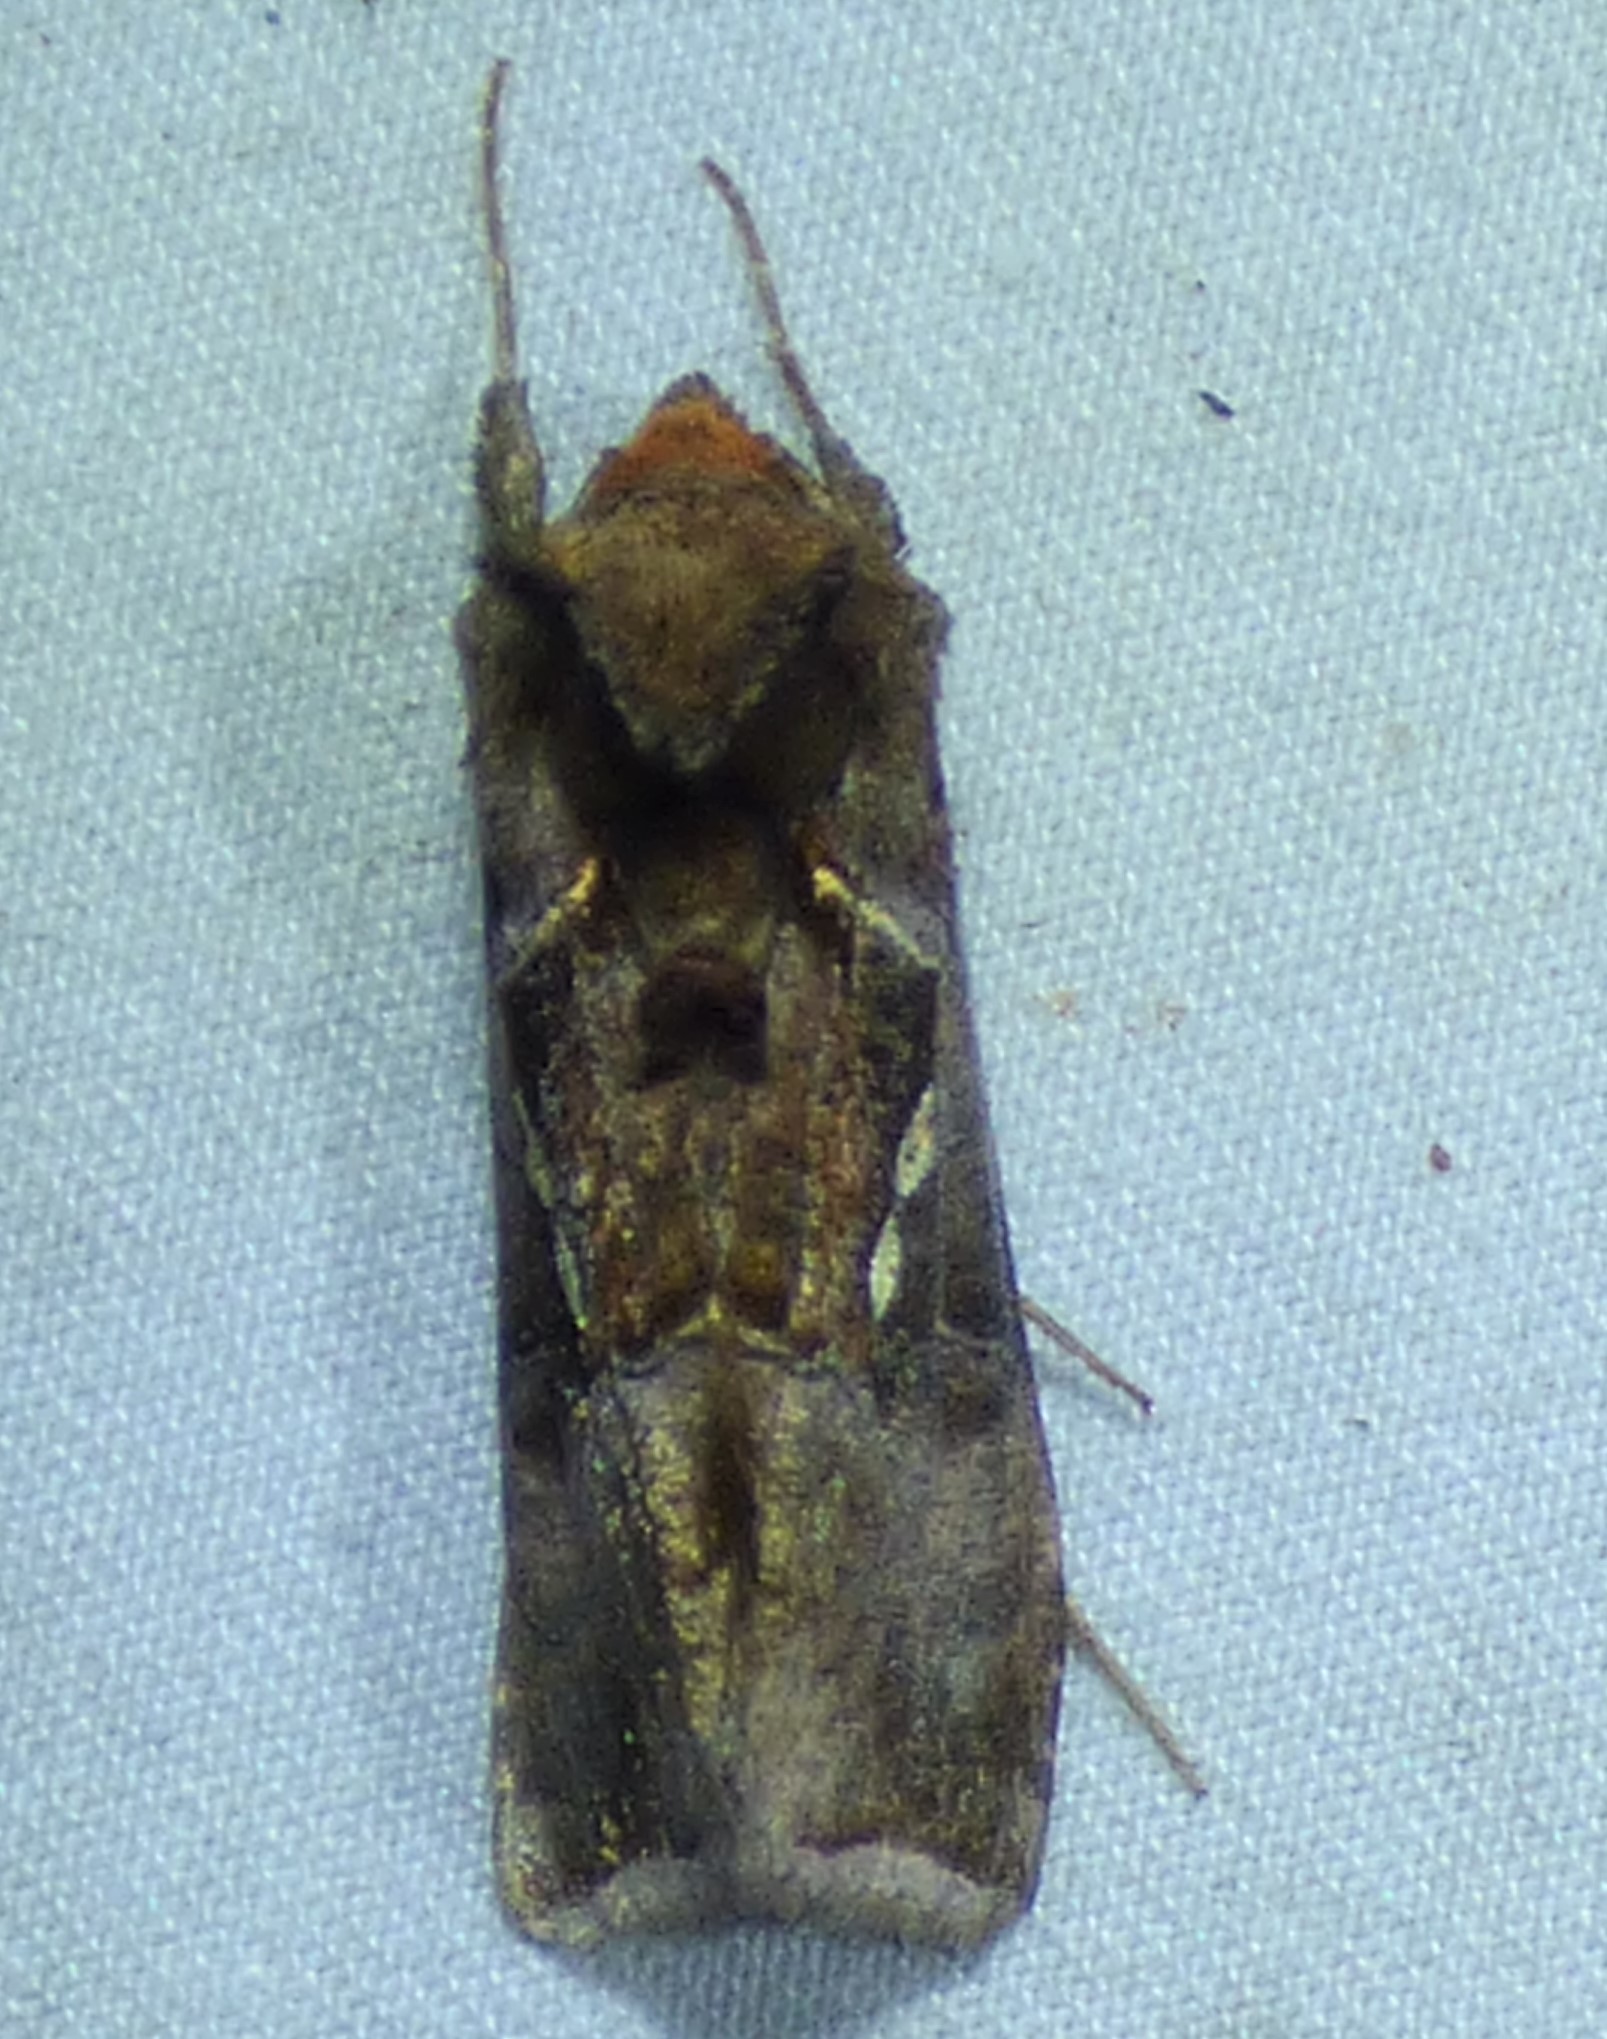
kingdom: Animalia
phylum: Arthropoda
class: Insecta
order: Lepidoptera
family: Noctuidae
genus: Enigmogramma
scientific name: Enigmogramma basigera
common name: Pink-washed looper moth
